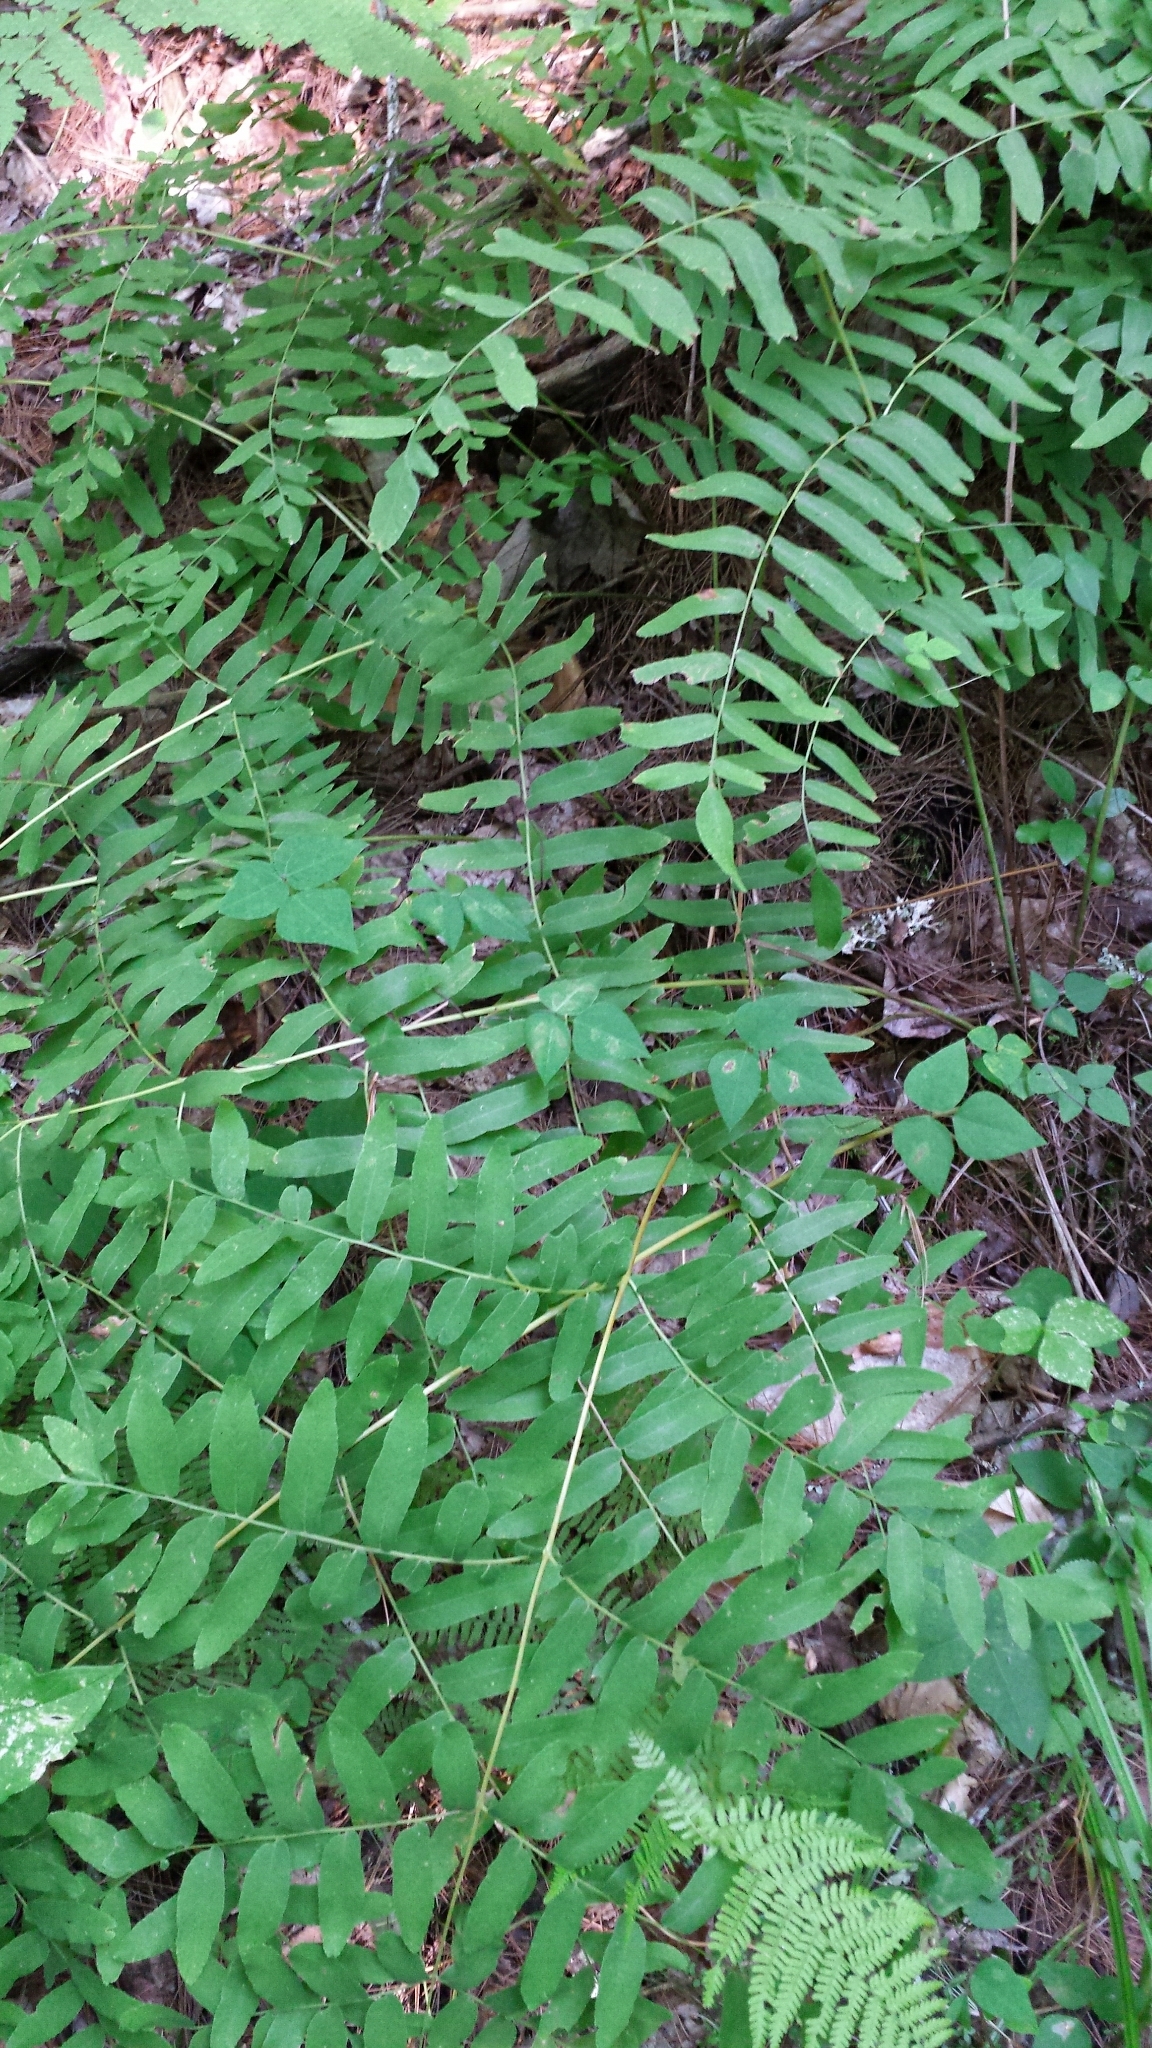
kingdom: Plantae
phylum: Tracheophyta
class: Polypodiopsida
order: Osmundales
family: Osmundaceae
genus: Osmunda
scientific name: Osmunda spectabilis
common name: American royal fern
